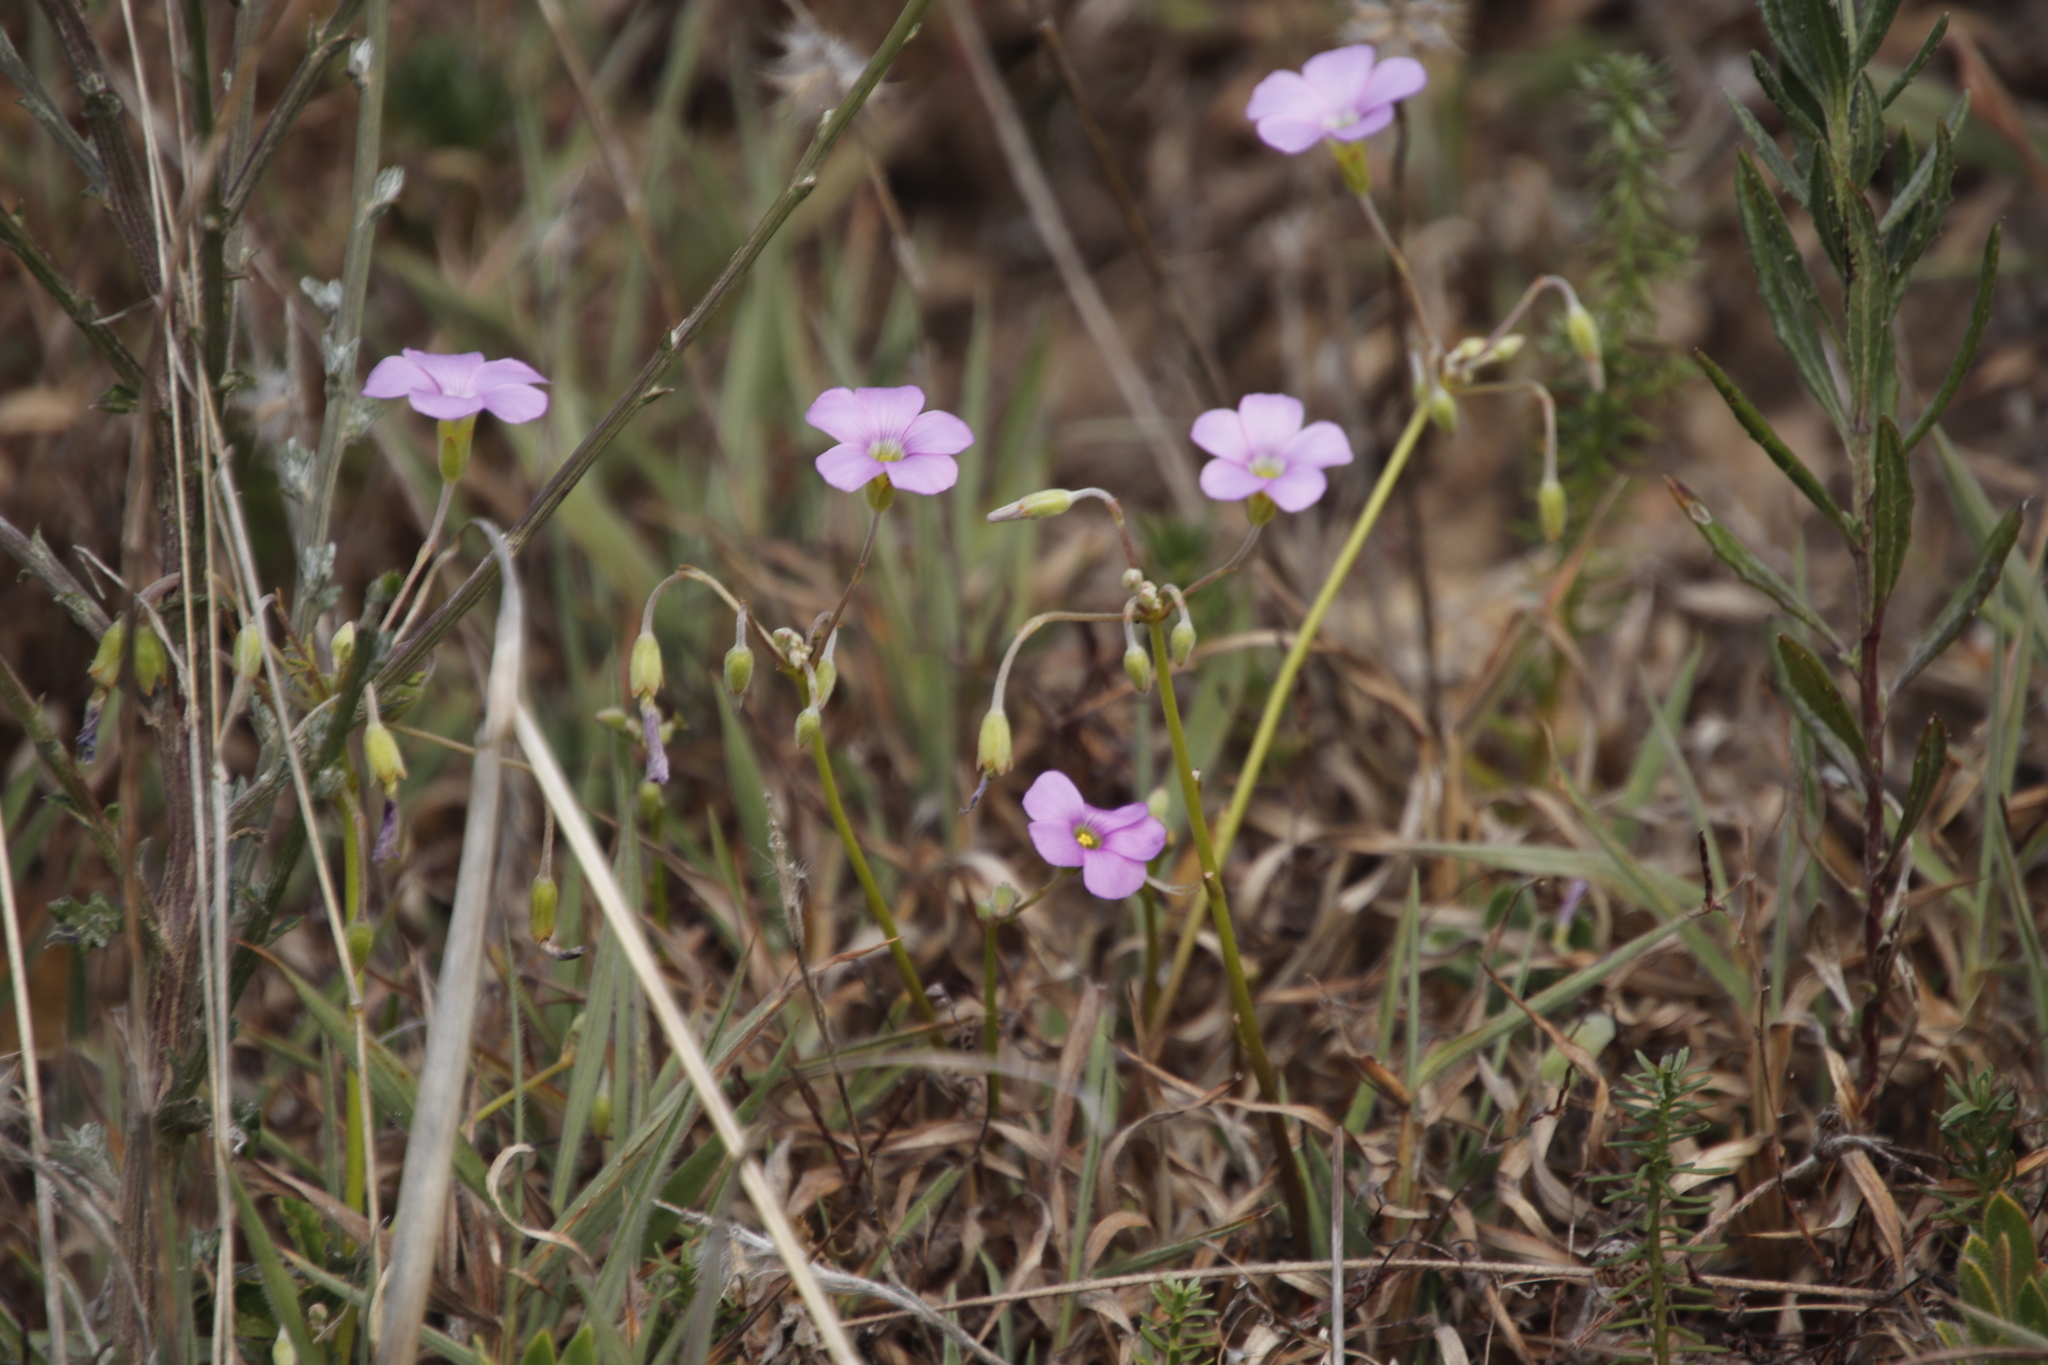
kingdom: Plantae
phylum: Tracheophyta
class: Magnoliopsida
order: Oxalidales
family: Oxalidaceae
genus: Oxalis
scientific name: Oxalis bifida
